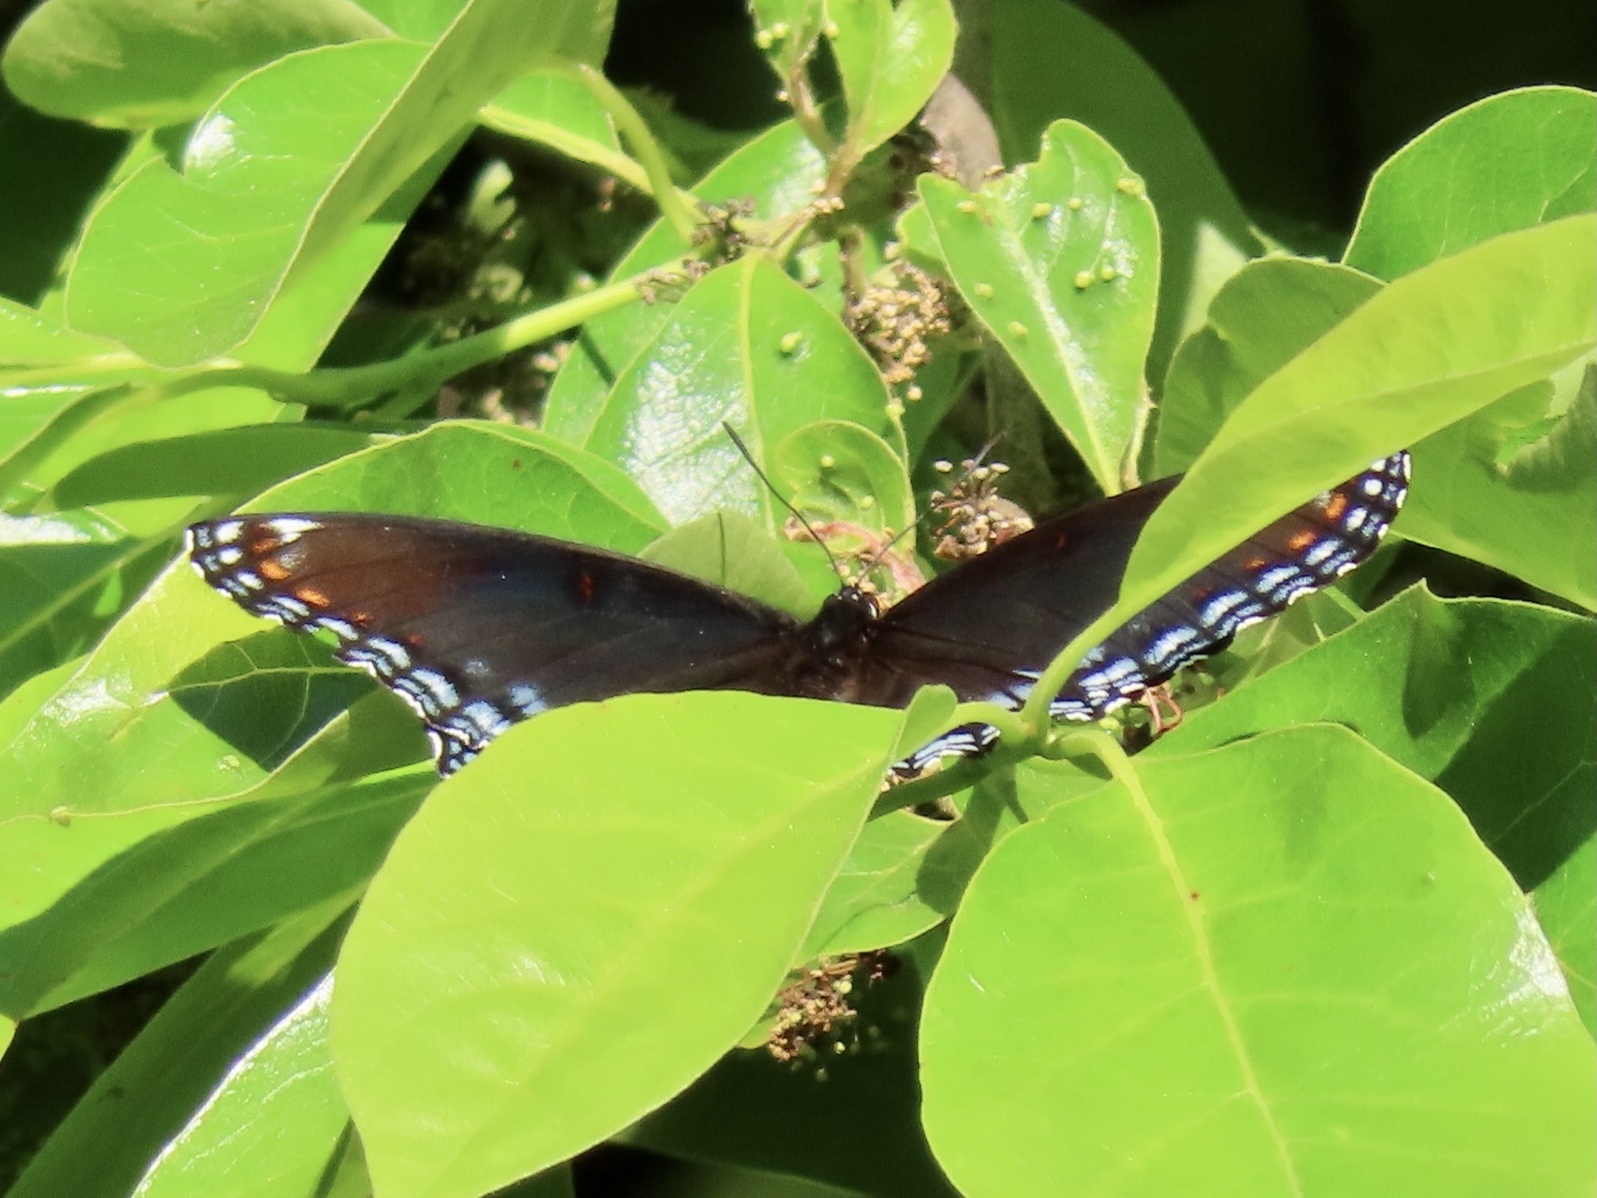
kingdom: Animalia
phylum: Arthropoda
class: Insecta
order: Lepidoptera
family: Nymphalidae
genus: Limenitis
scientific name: Limenitis astyanax
